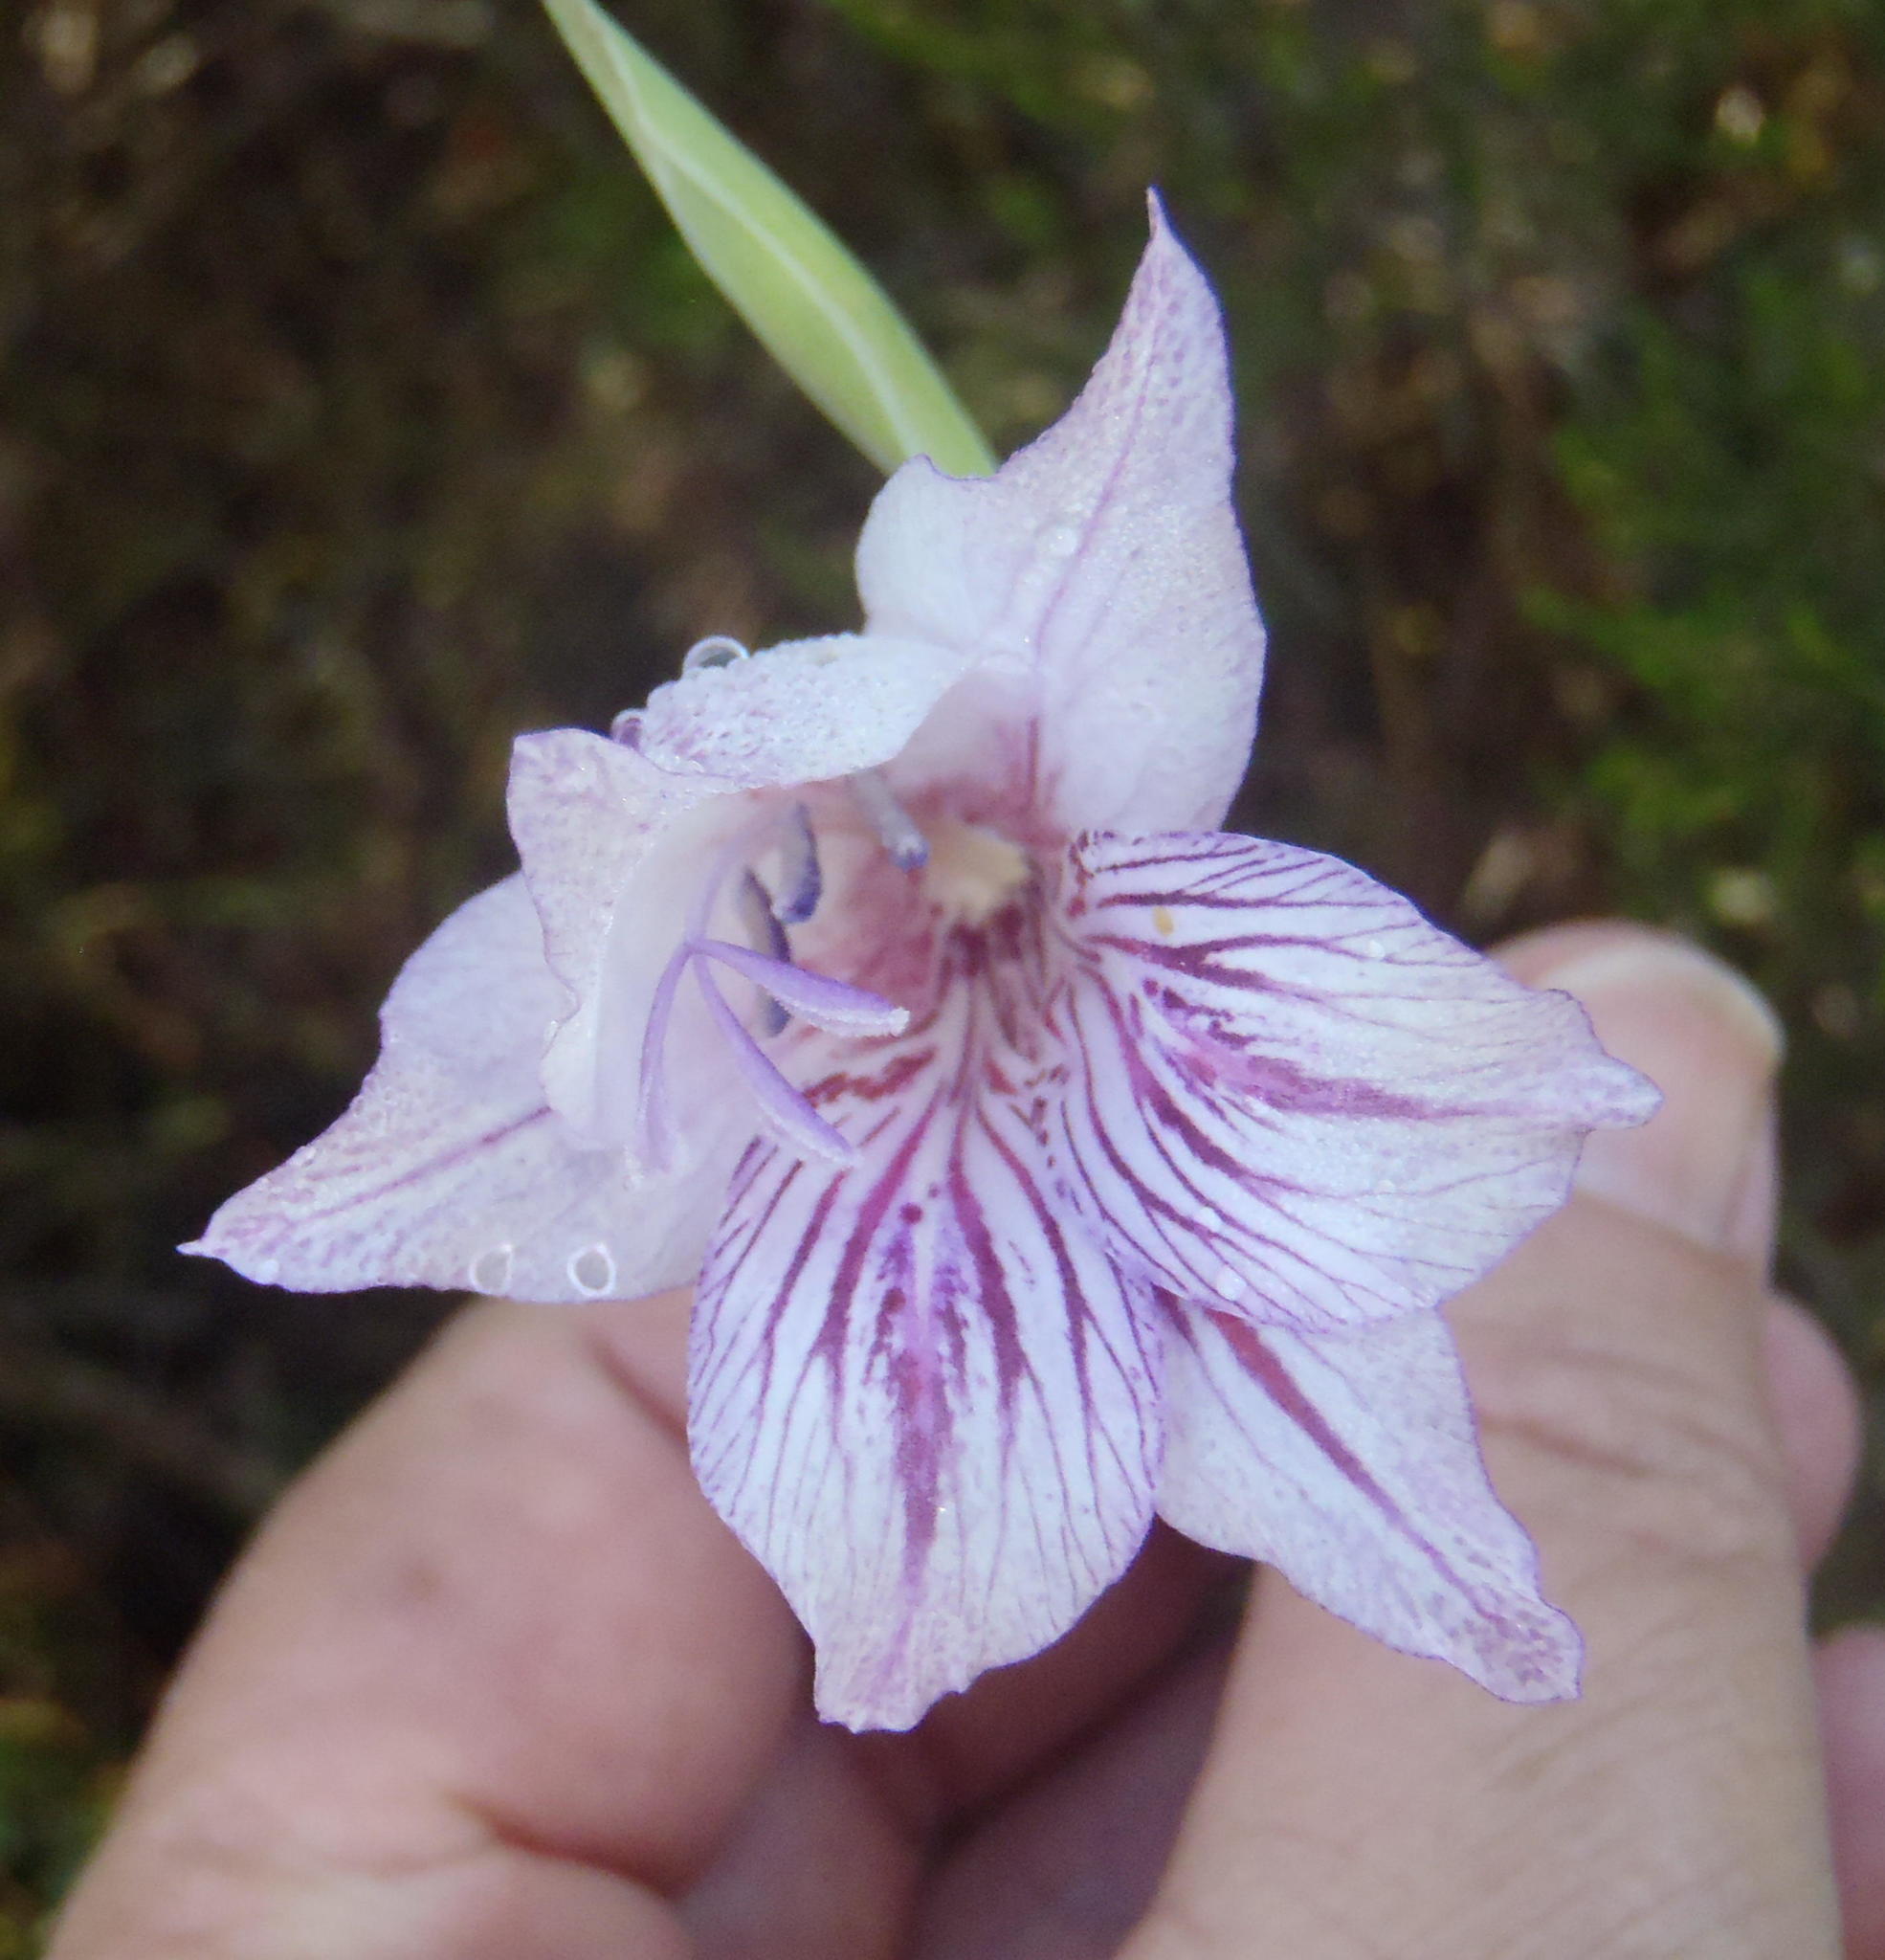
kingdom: Plantae
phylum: Tracheophyta
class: Liliopsida
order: Asparagales
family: Iridaceae
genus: Gladiolus
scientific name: Gladiolus roseovenosus
